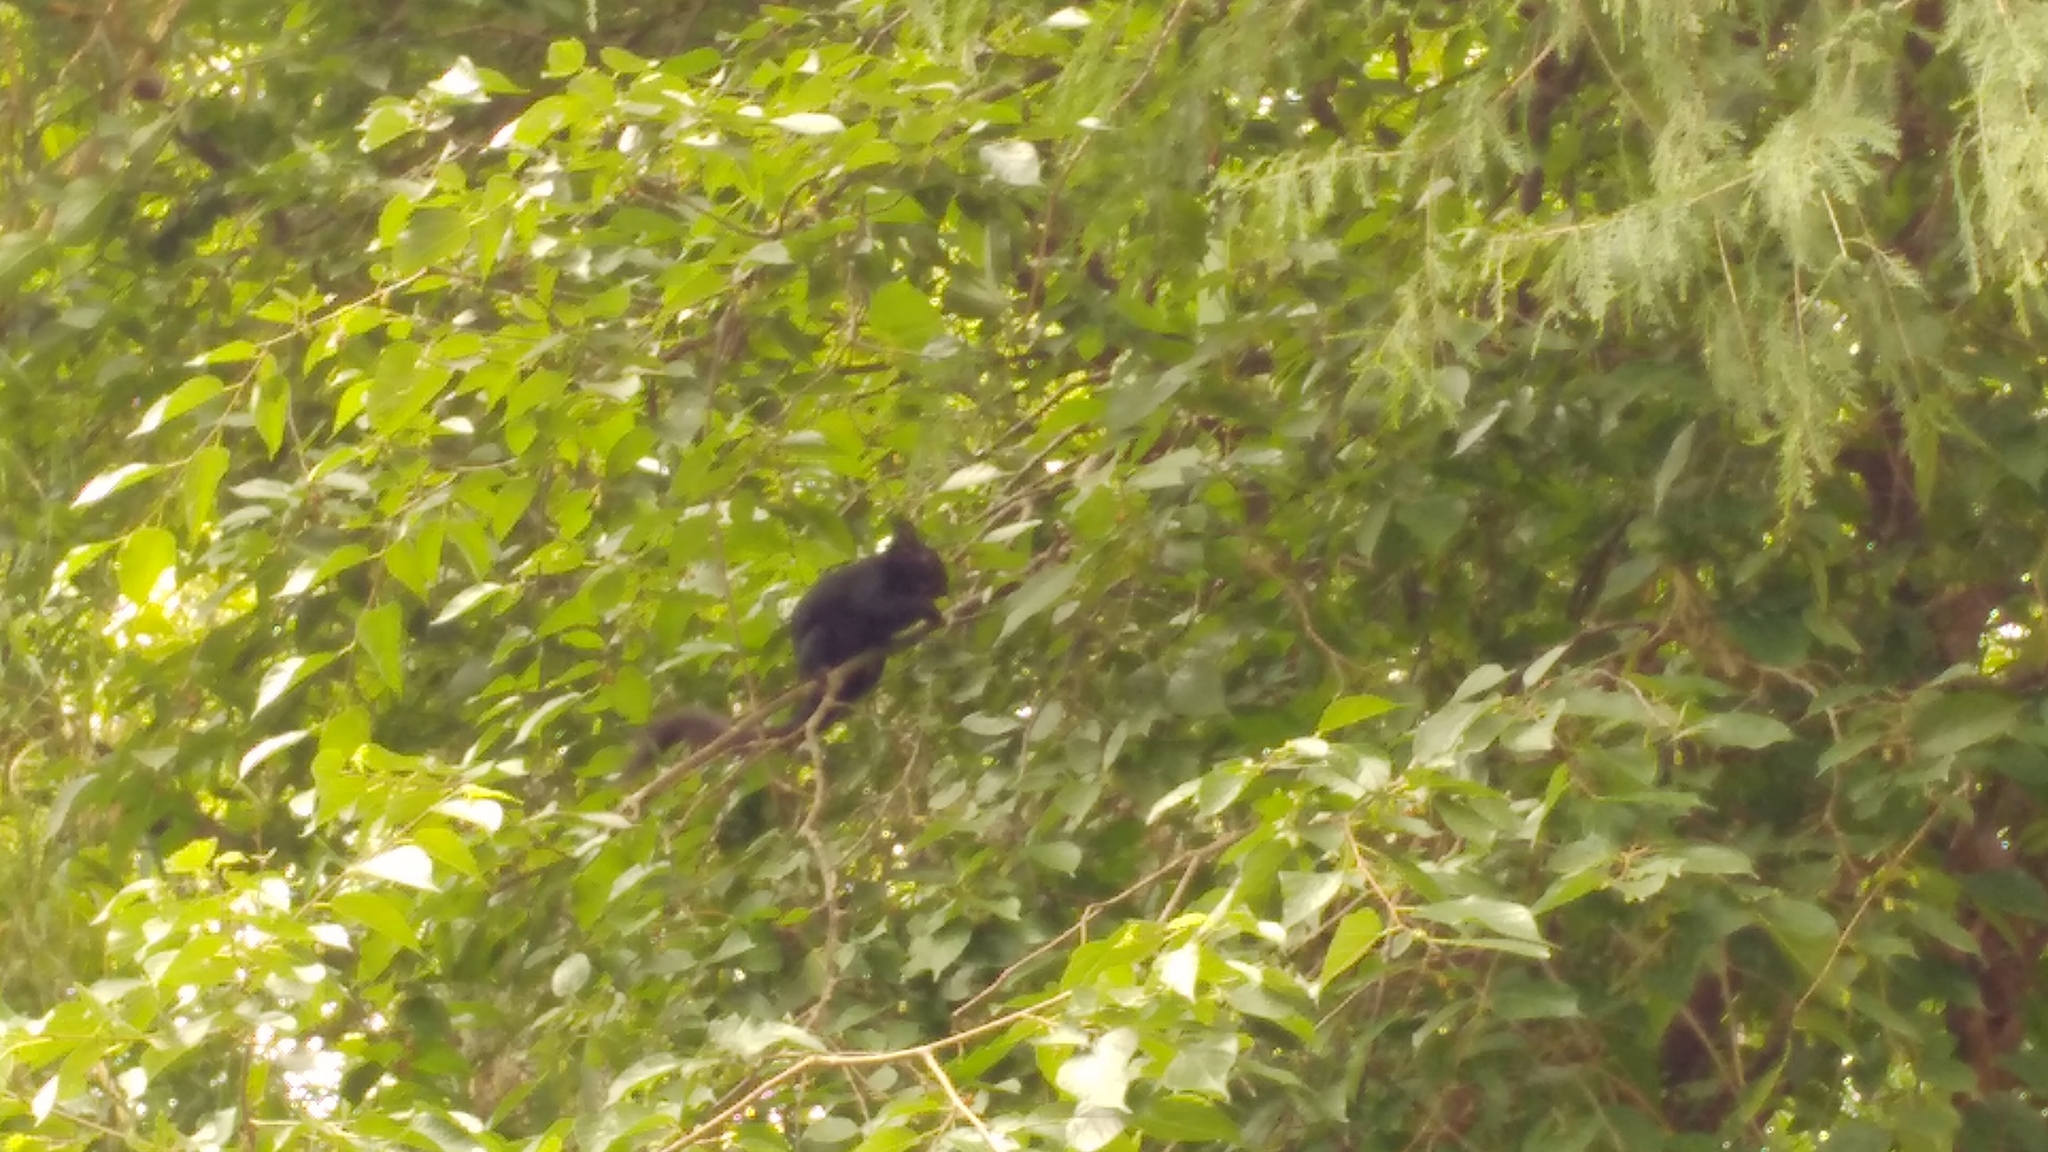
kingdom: Animalia
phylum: Chordata
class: Mammalia
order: Rodentia
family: Sciuridae
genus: Sciurus
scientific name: Sciurus aureogaster
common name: Red-bellied squirrel
